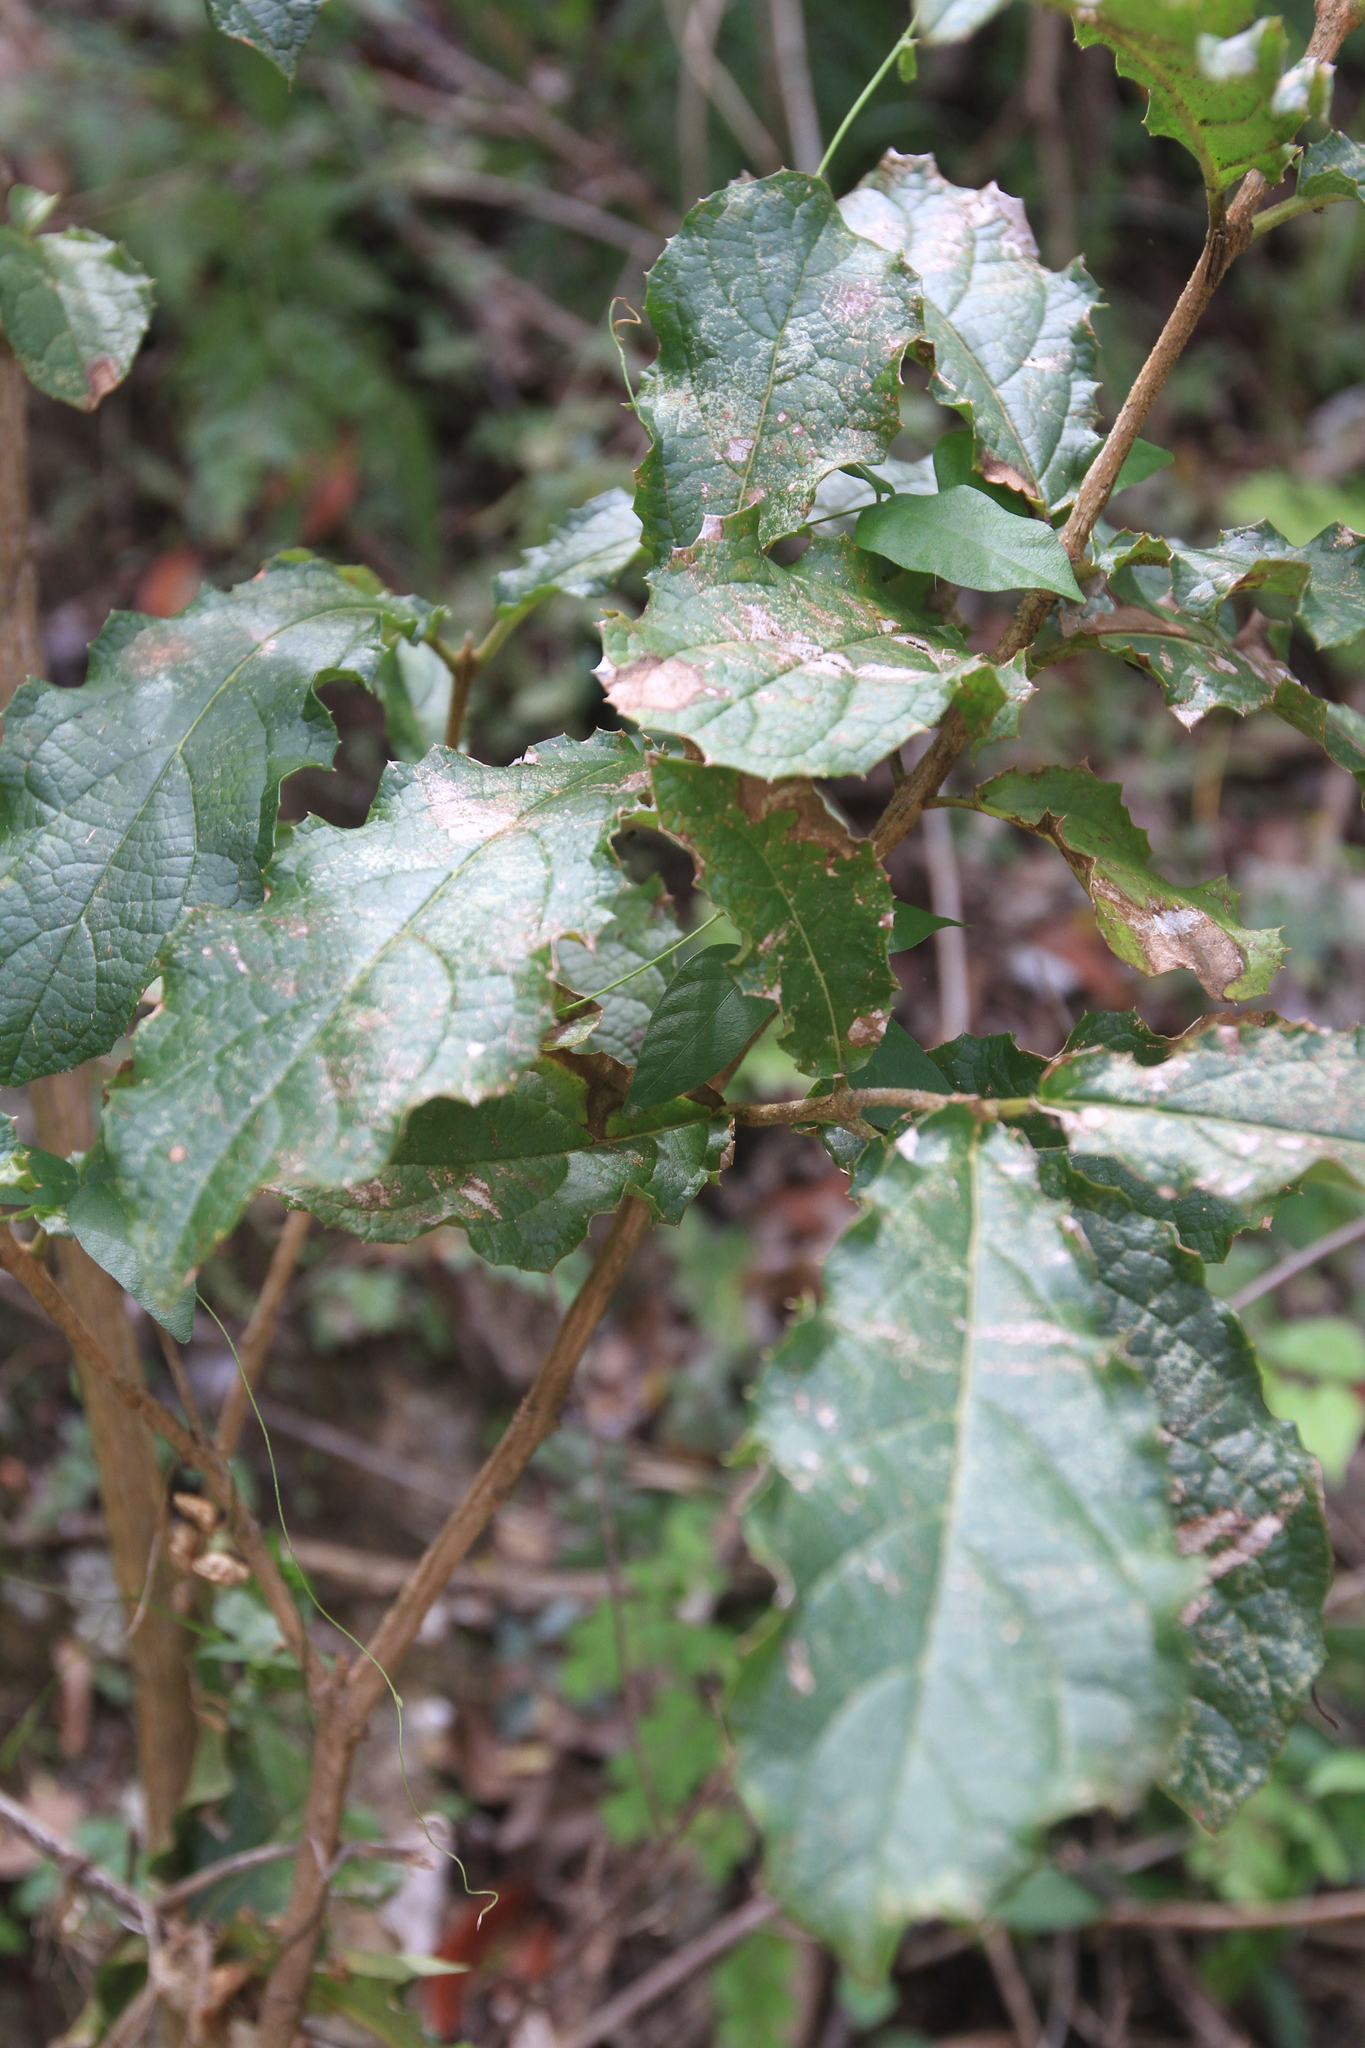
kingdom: Plantae
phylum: Tracheophyta
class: Magnoliopsida
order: Lamiales
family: Lamiaceae
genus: Ovieda
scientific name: Ovieda spinosa
